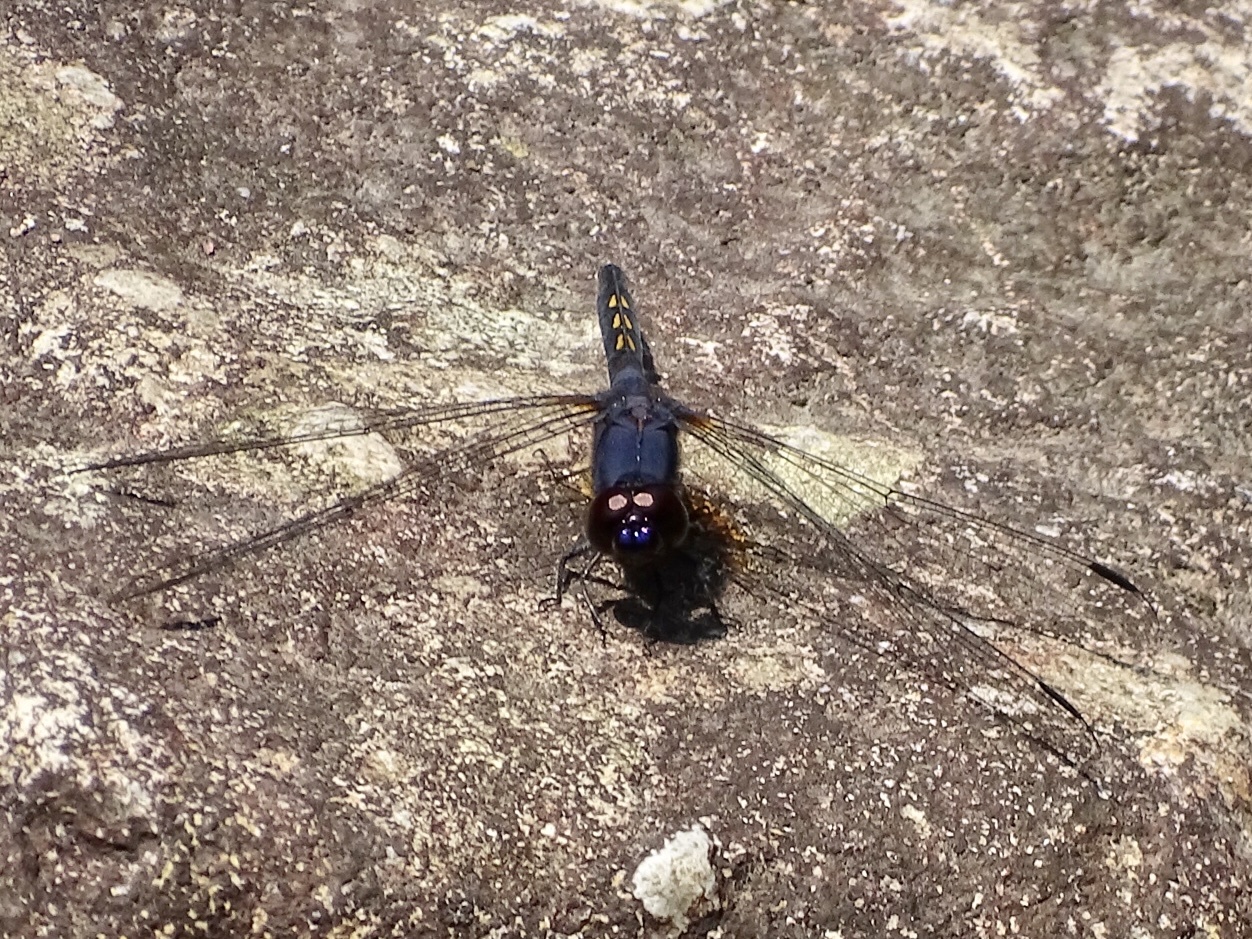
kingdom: Animalia
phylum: Arthropoda
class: Insecta
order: Odonata
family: Libellulidae
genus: Trithemis
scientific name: Trithemis festiva
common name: Indigo dropwing
